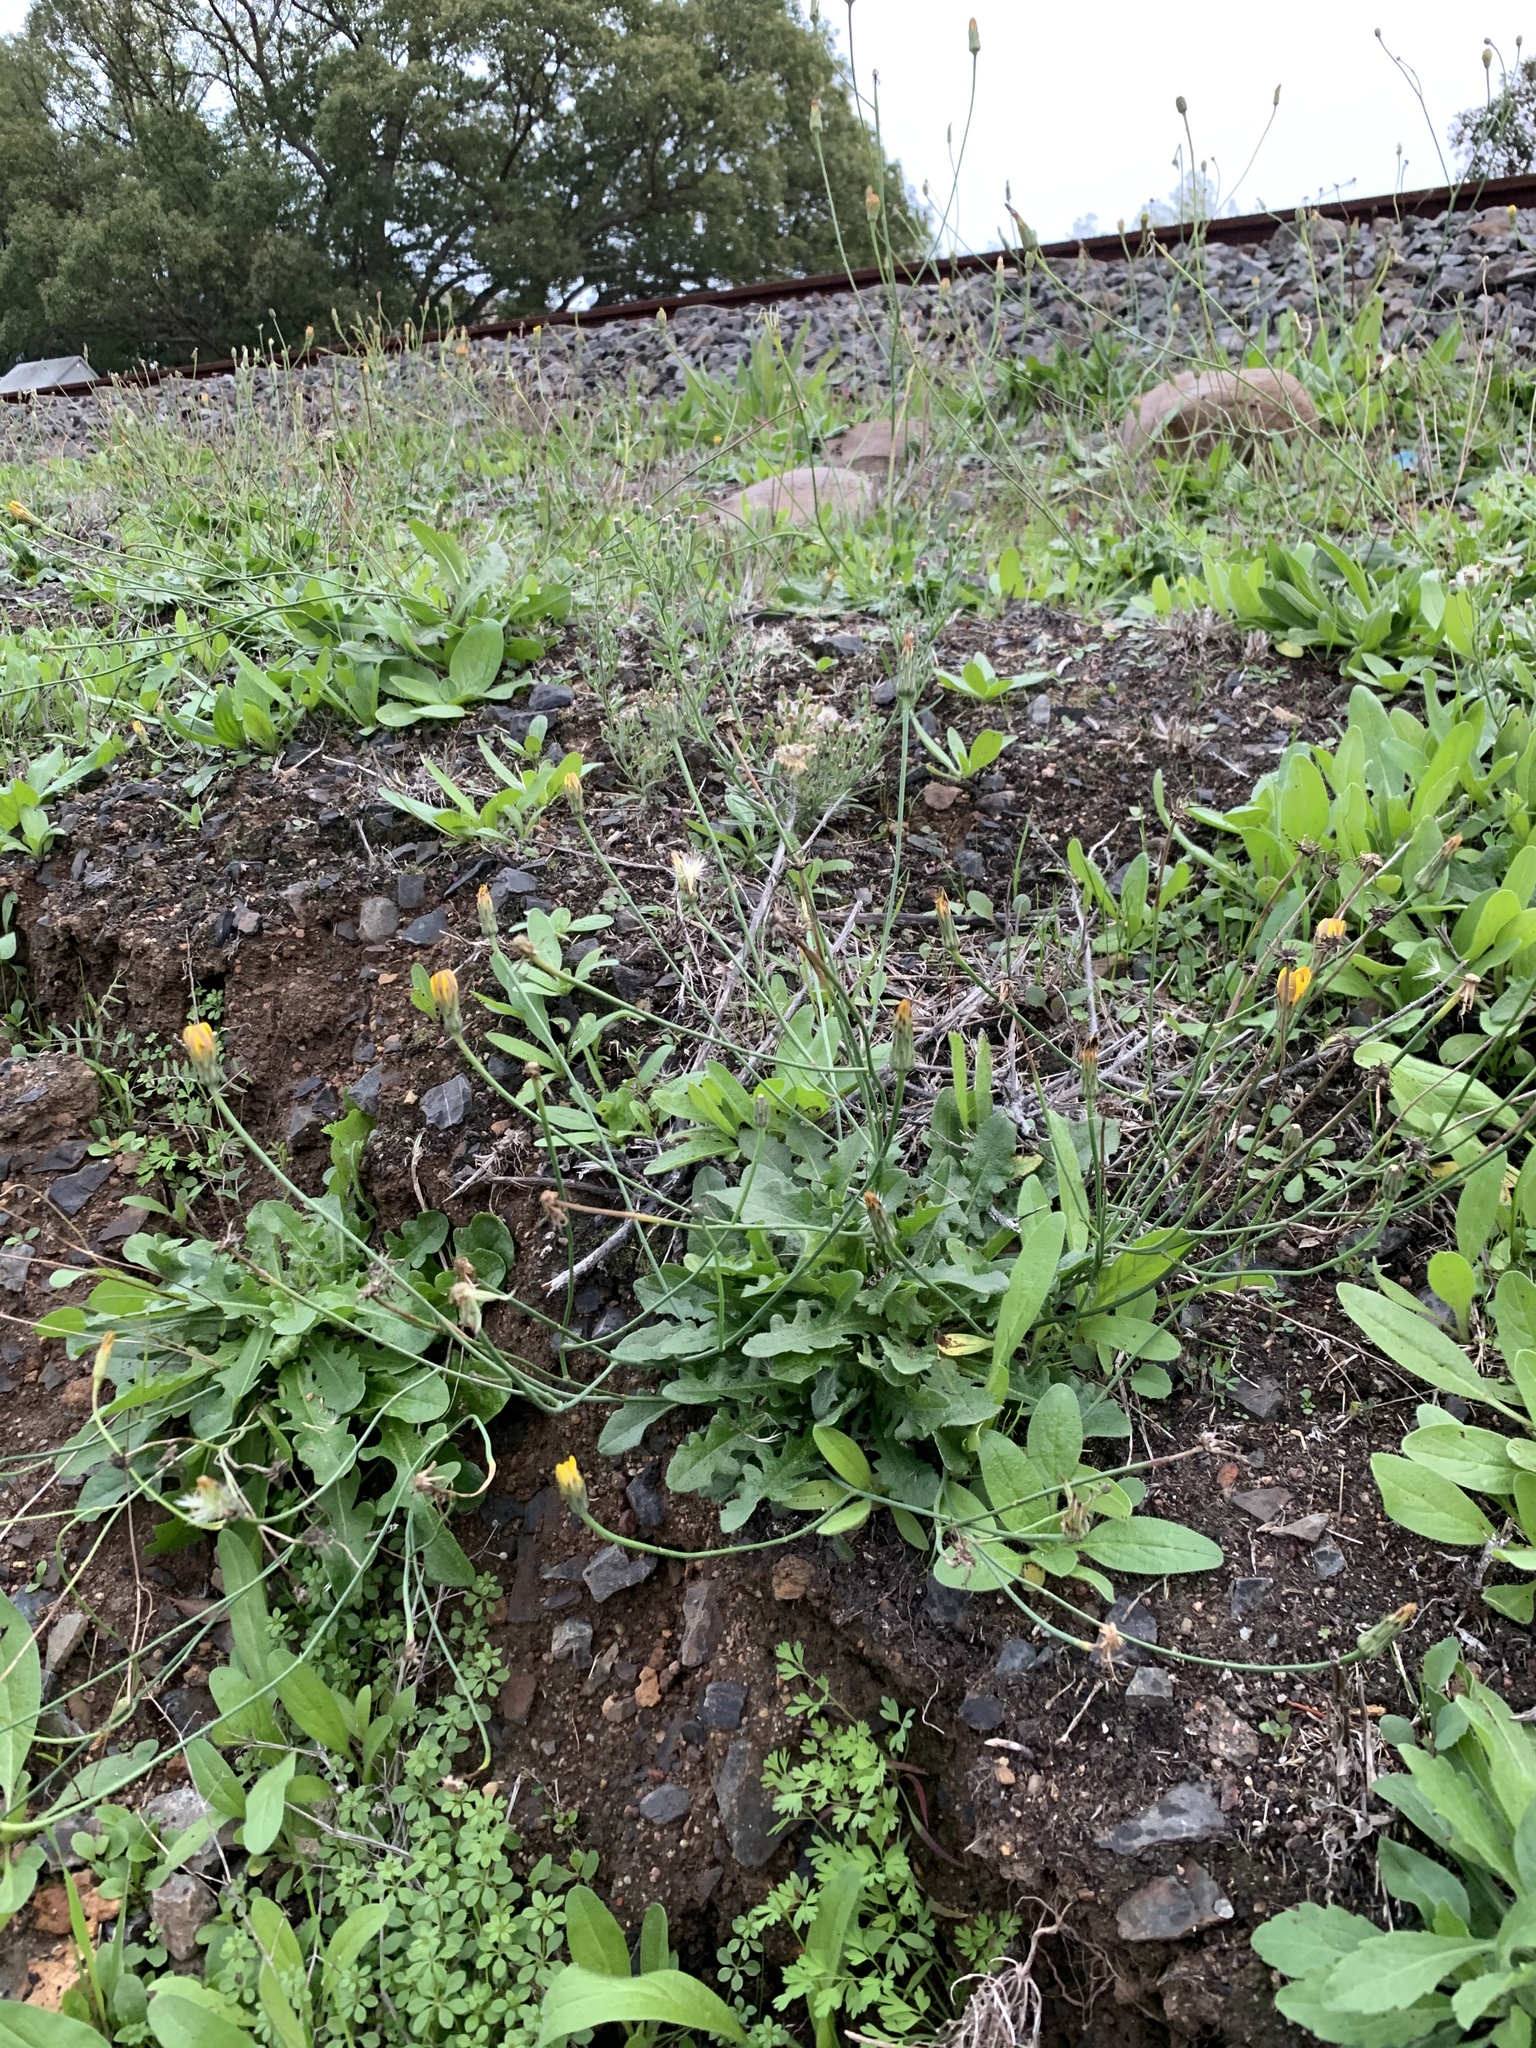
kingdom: Plantae
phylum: Tracheophyta
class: Magnoliopsida
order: Asterales
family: Asteraceae
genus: Hypochaeris
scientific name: Hypochaeris radicata
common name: Flatweed
